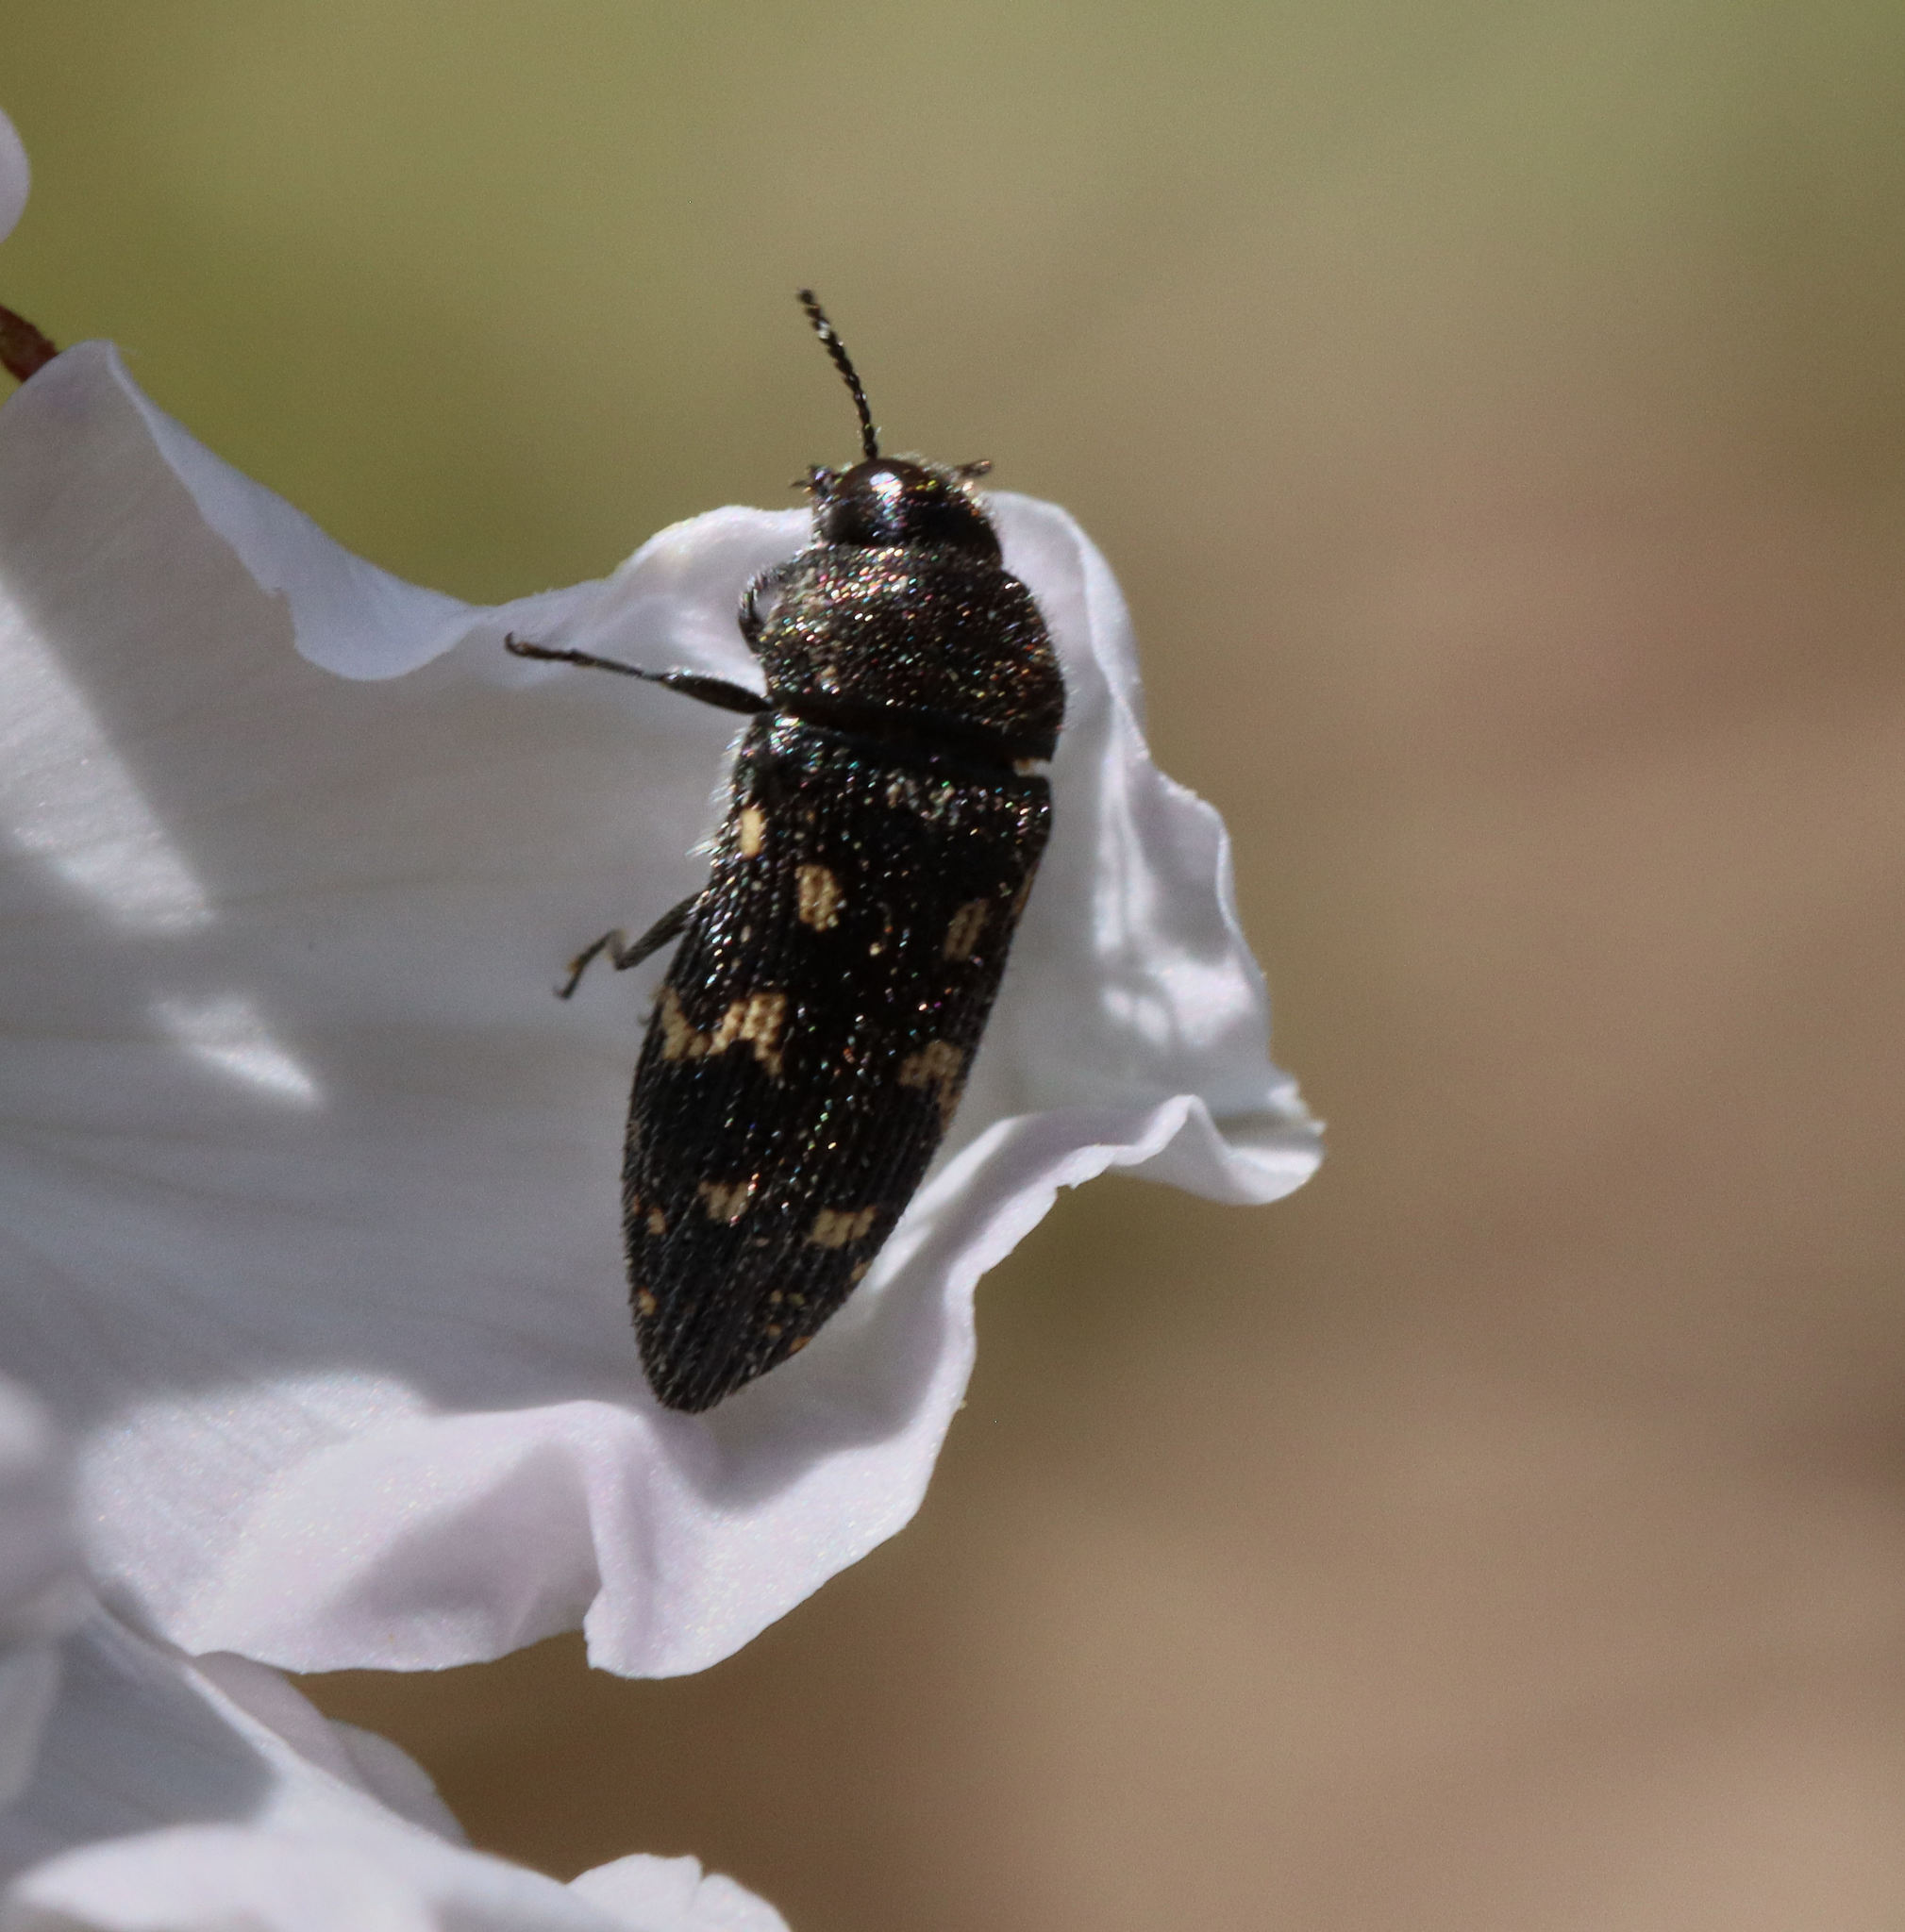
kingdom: Animalia
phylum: Arthropoda
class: Insecta
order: Coleoptera
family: Buprestidae
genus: Acmaeodera
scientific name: Acmaeodera tubulus
